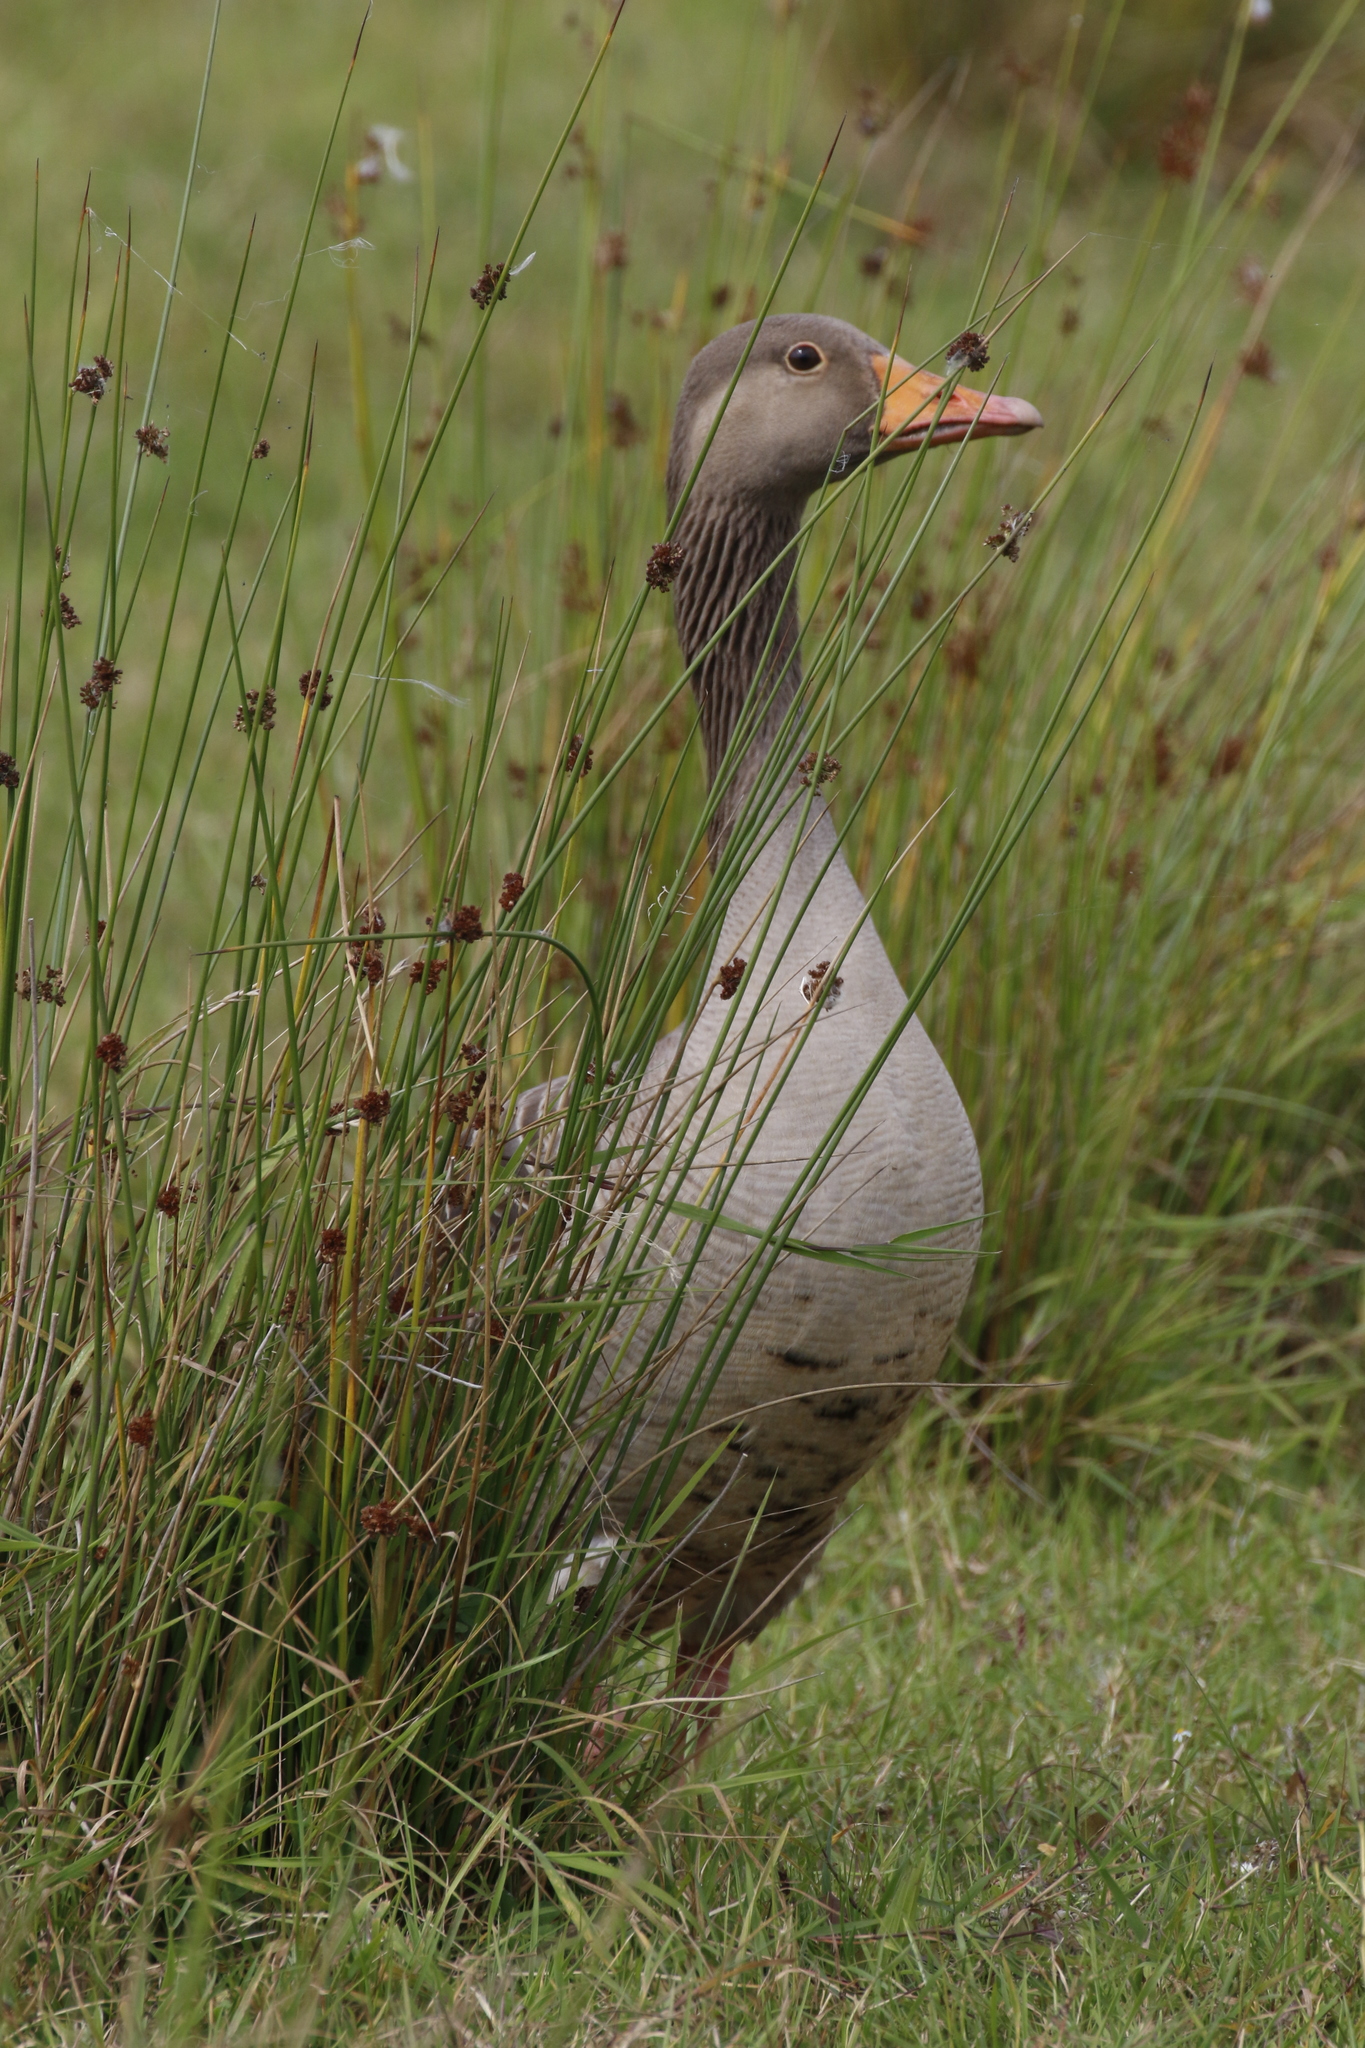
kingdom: Animalia
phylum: Chordata
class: Aves
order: Anseriformes
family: Anatidae
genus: Anser
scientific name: Anser anser
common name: Greylag goose
